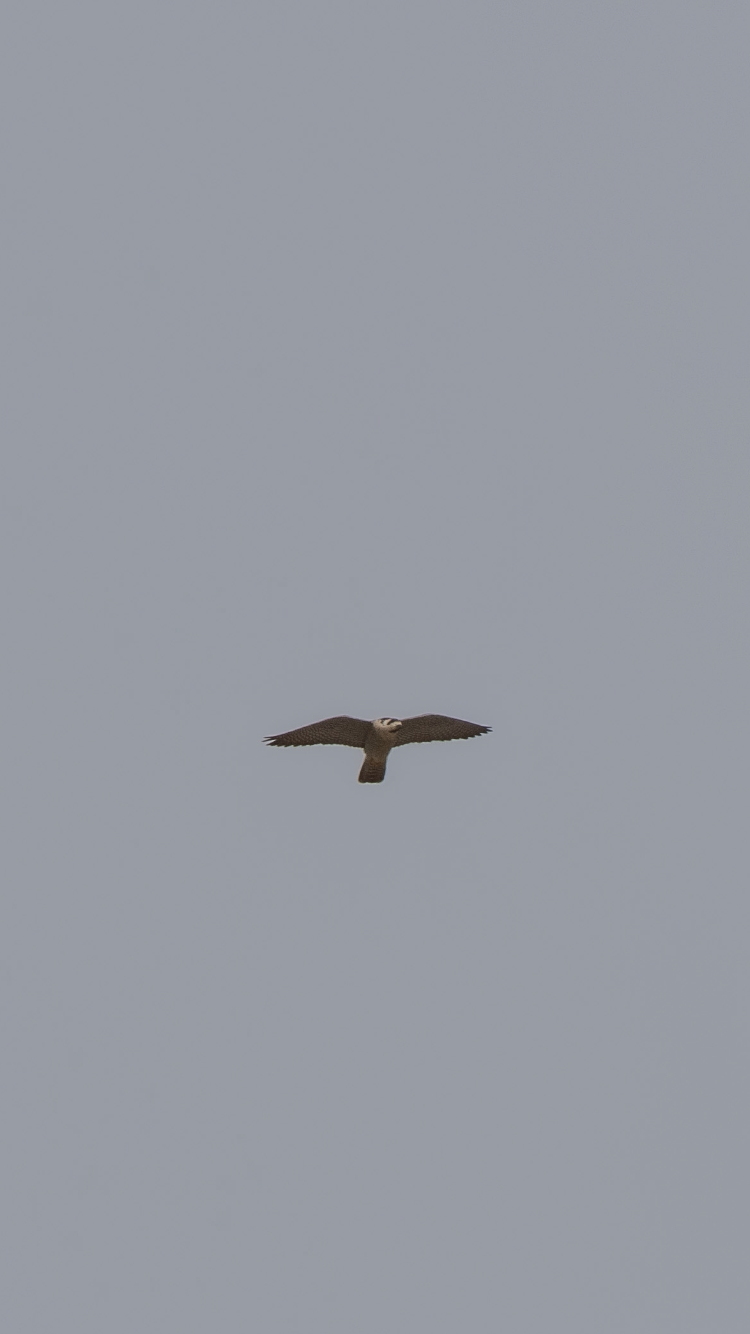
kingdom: Animalia
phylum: Chordata
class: Aves
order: Falconiformes
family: Falconidae
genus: Falco
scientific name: Falco peregrinus
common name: Peregrine falcon
